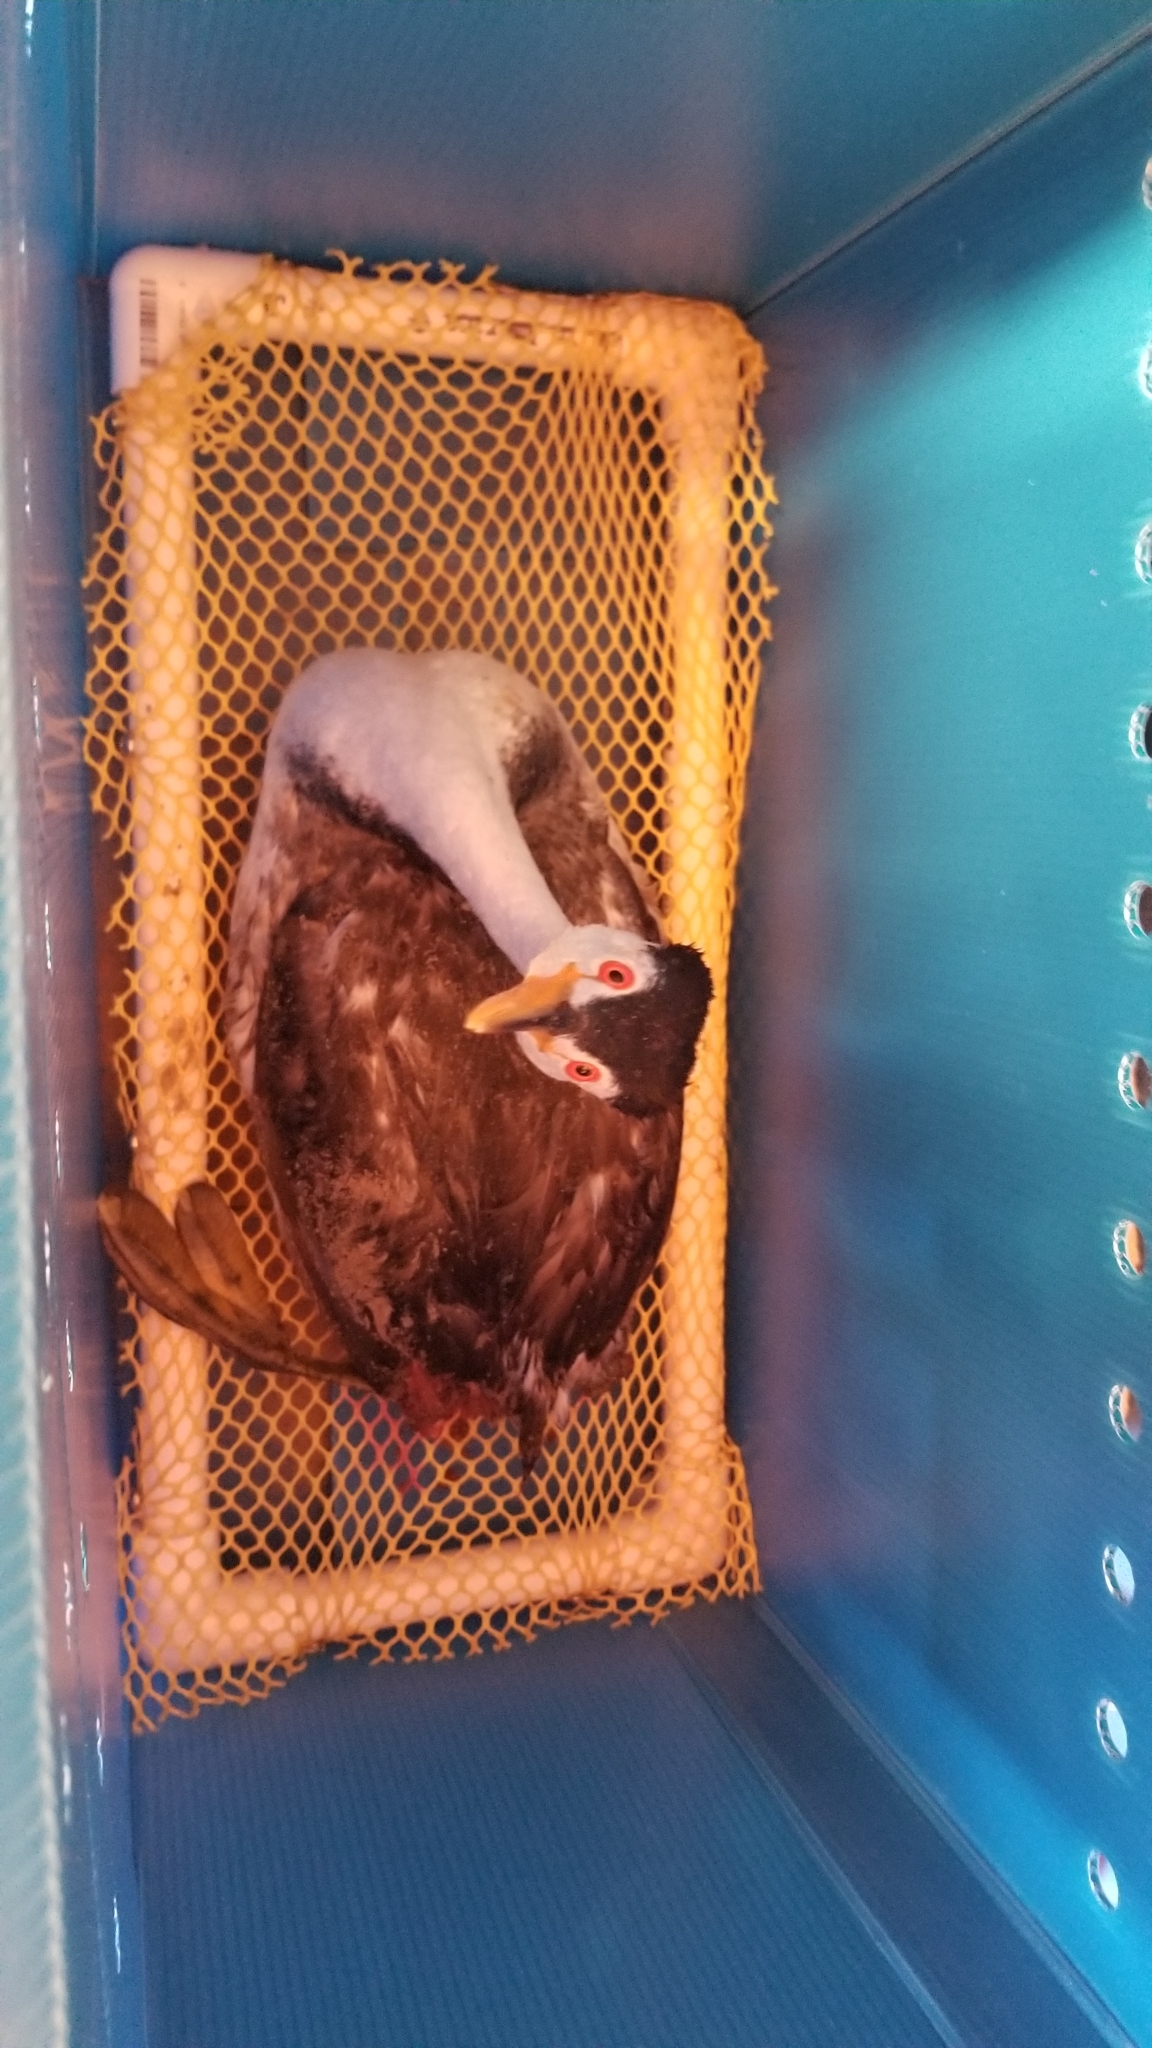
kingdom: Animalia
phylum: Chordata
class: Aves
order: Podicipediformes
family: Podicipedidae
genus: Aechmophorus
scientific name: Aechmophorus clarkii
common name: Clark's grebe
